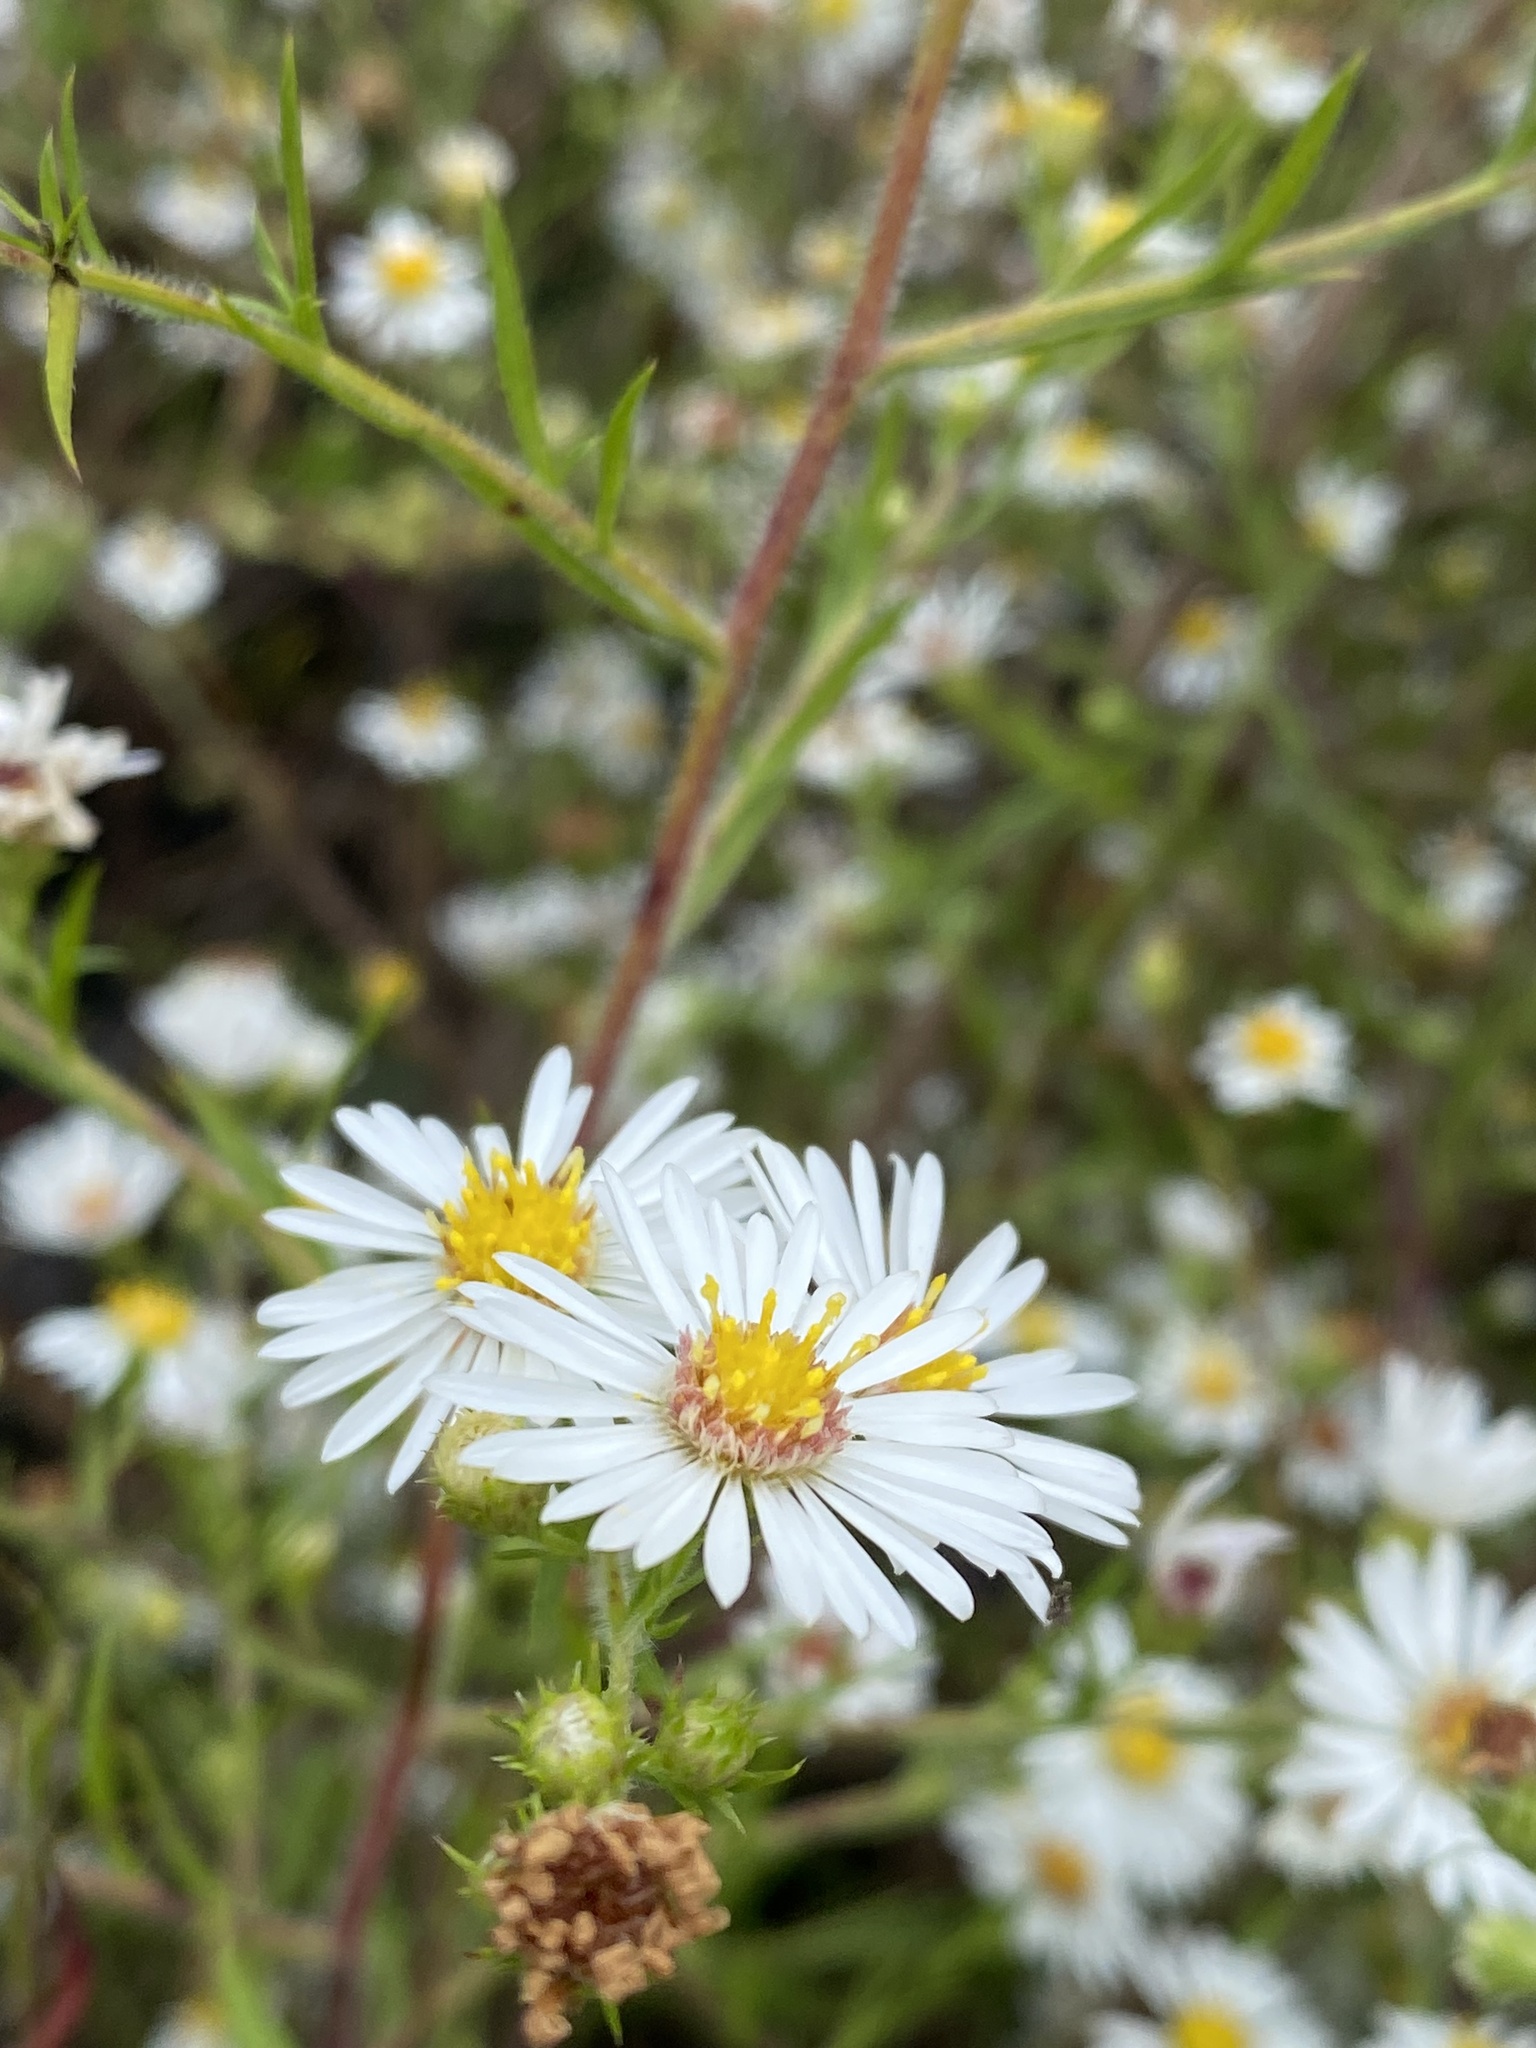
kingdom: Plantae
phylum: Tracheophyta
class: Magnoliopsida
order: Asterales
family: Asteraceae
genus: Symphyotrichum
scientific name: Symphyotrichum pilosum
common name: Awl aster
